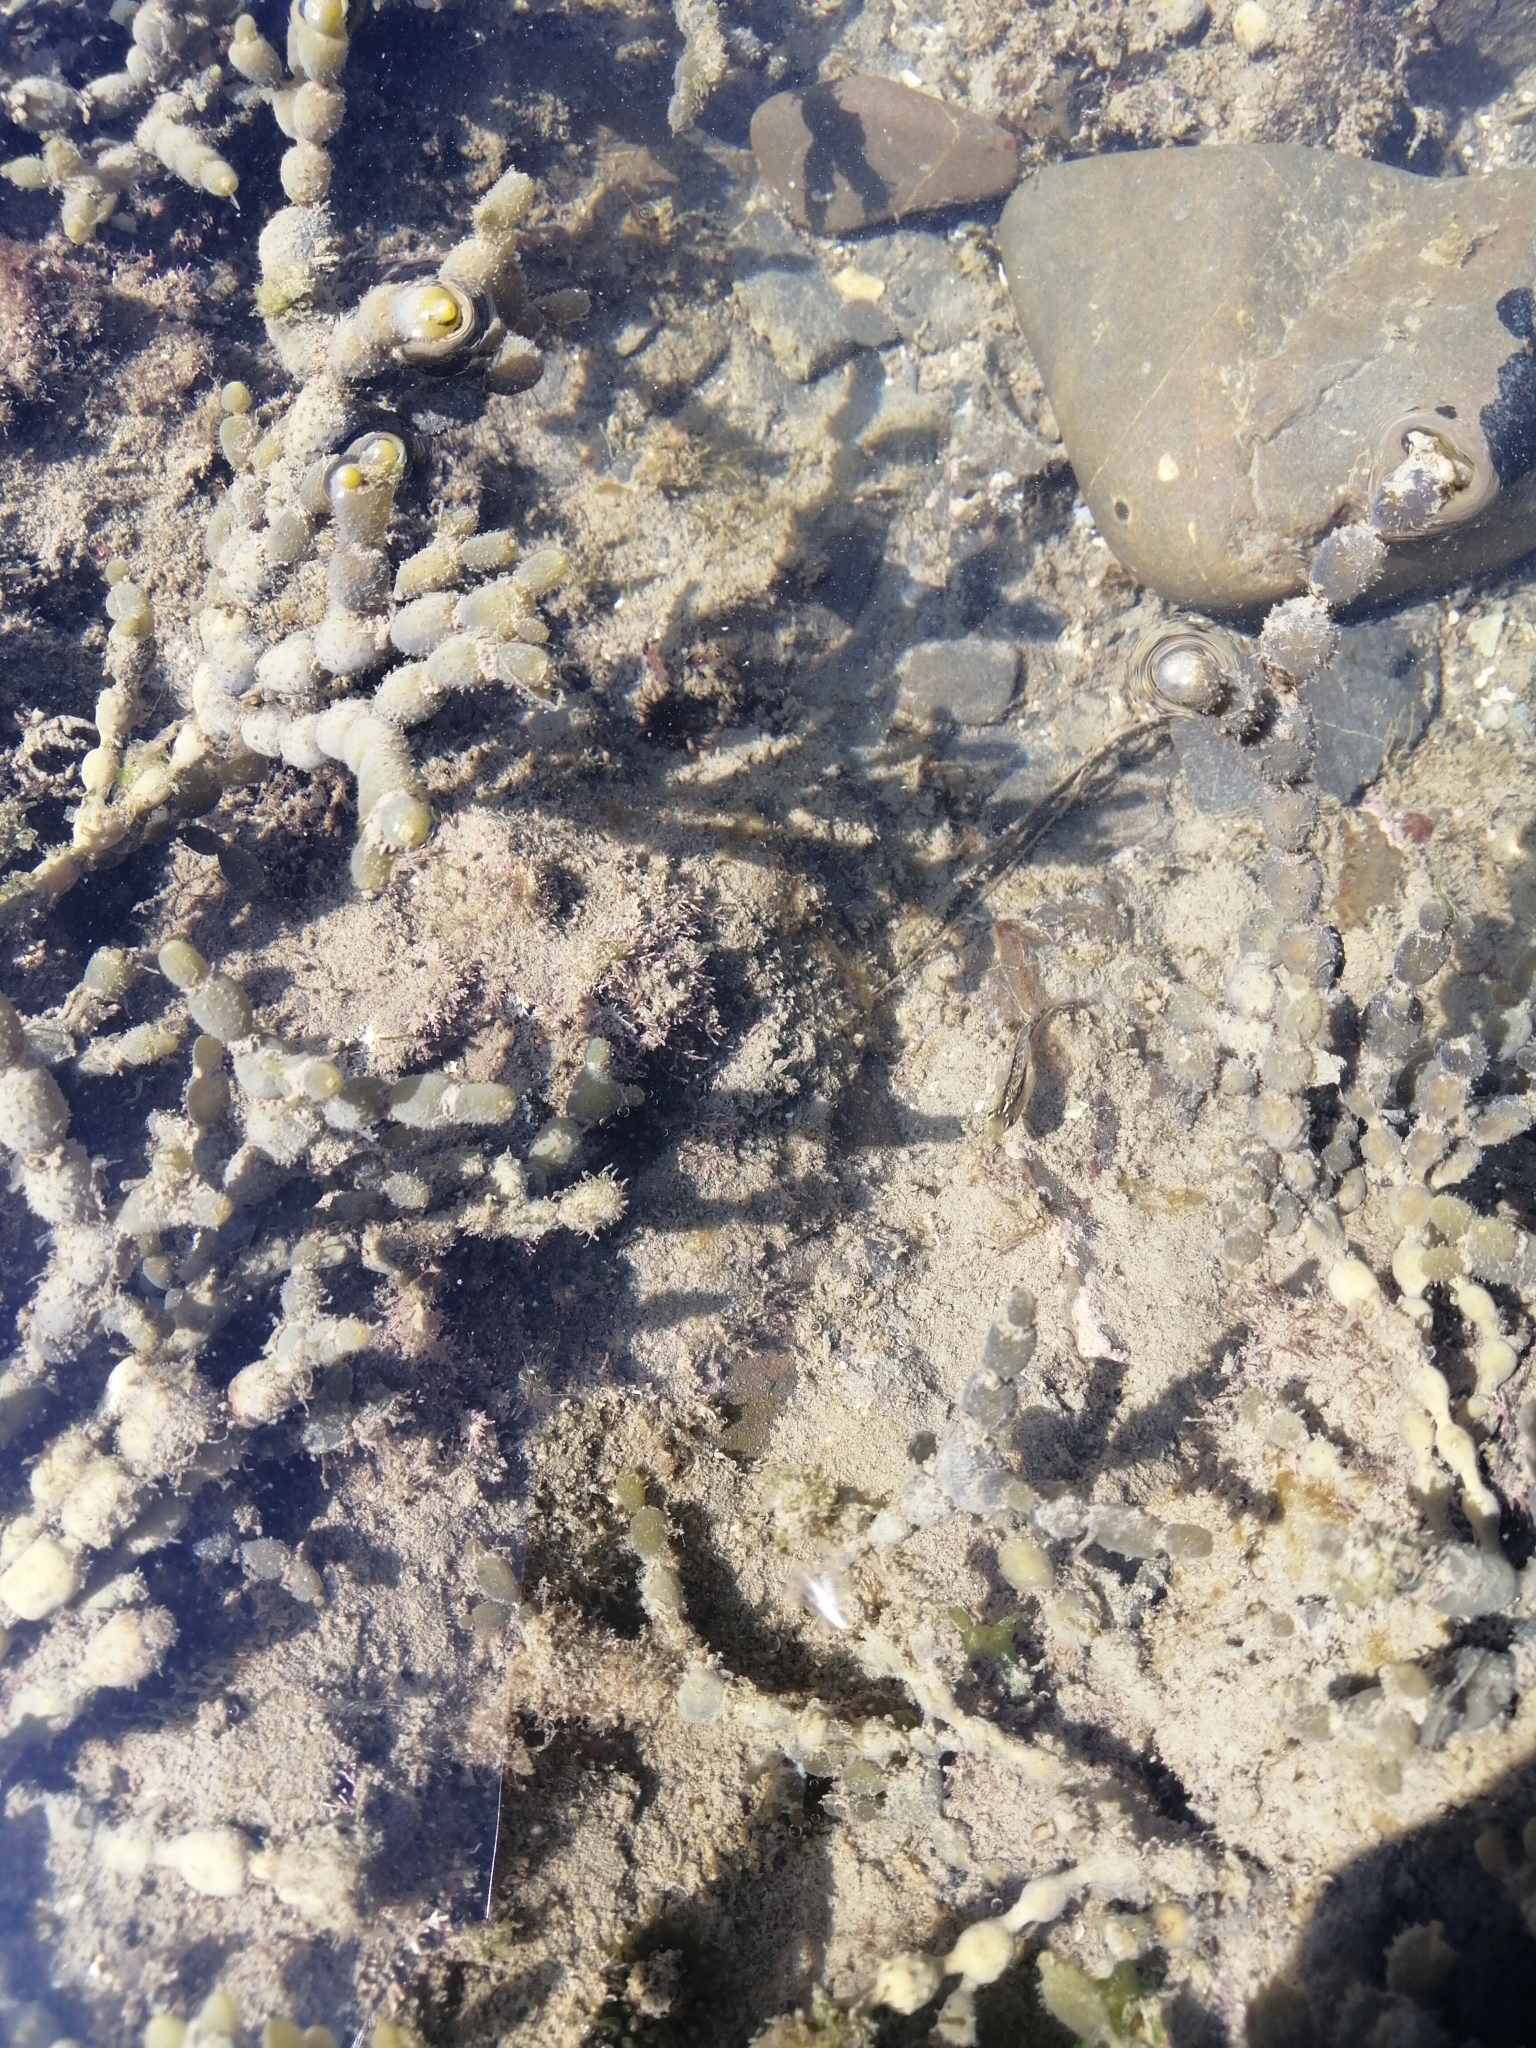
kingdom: Animalia
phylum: Chordata
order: Perciformes
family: Tripterygiidae
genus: Forsterygion
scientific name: Forsterygion lapillum
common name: Common triplefin
